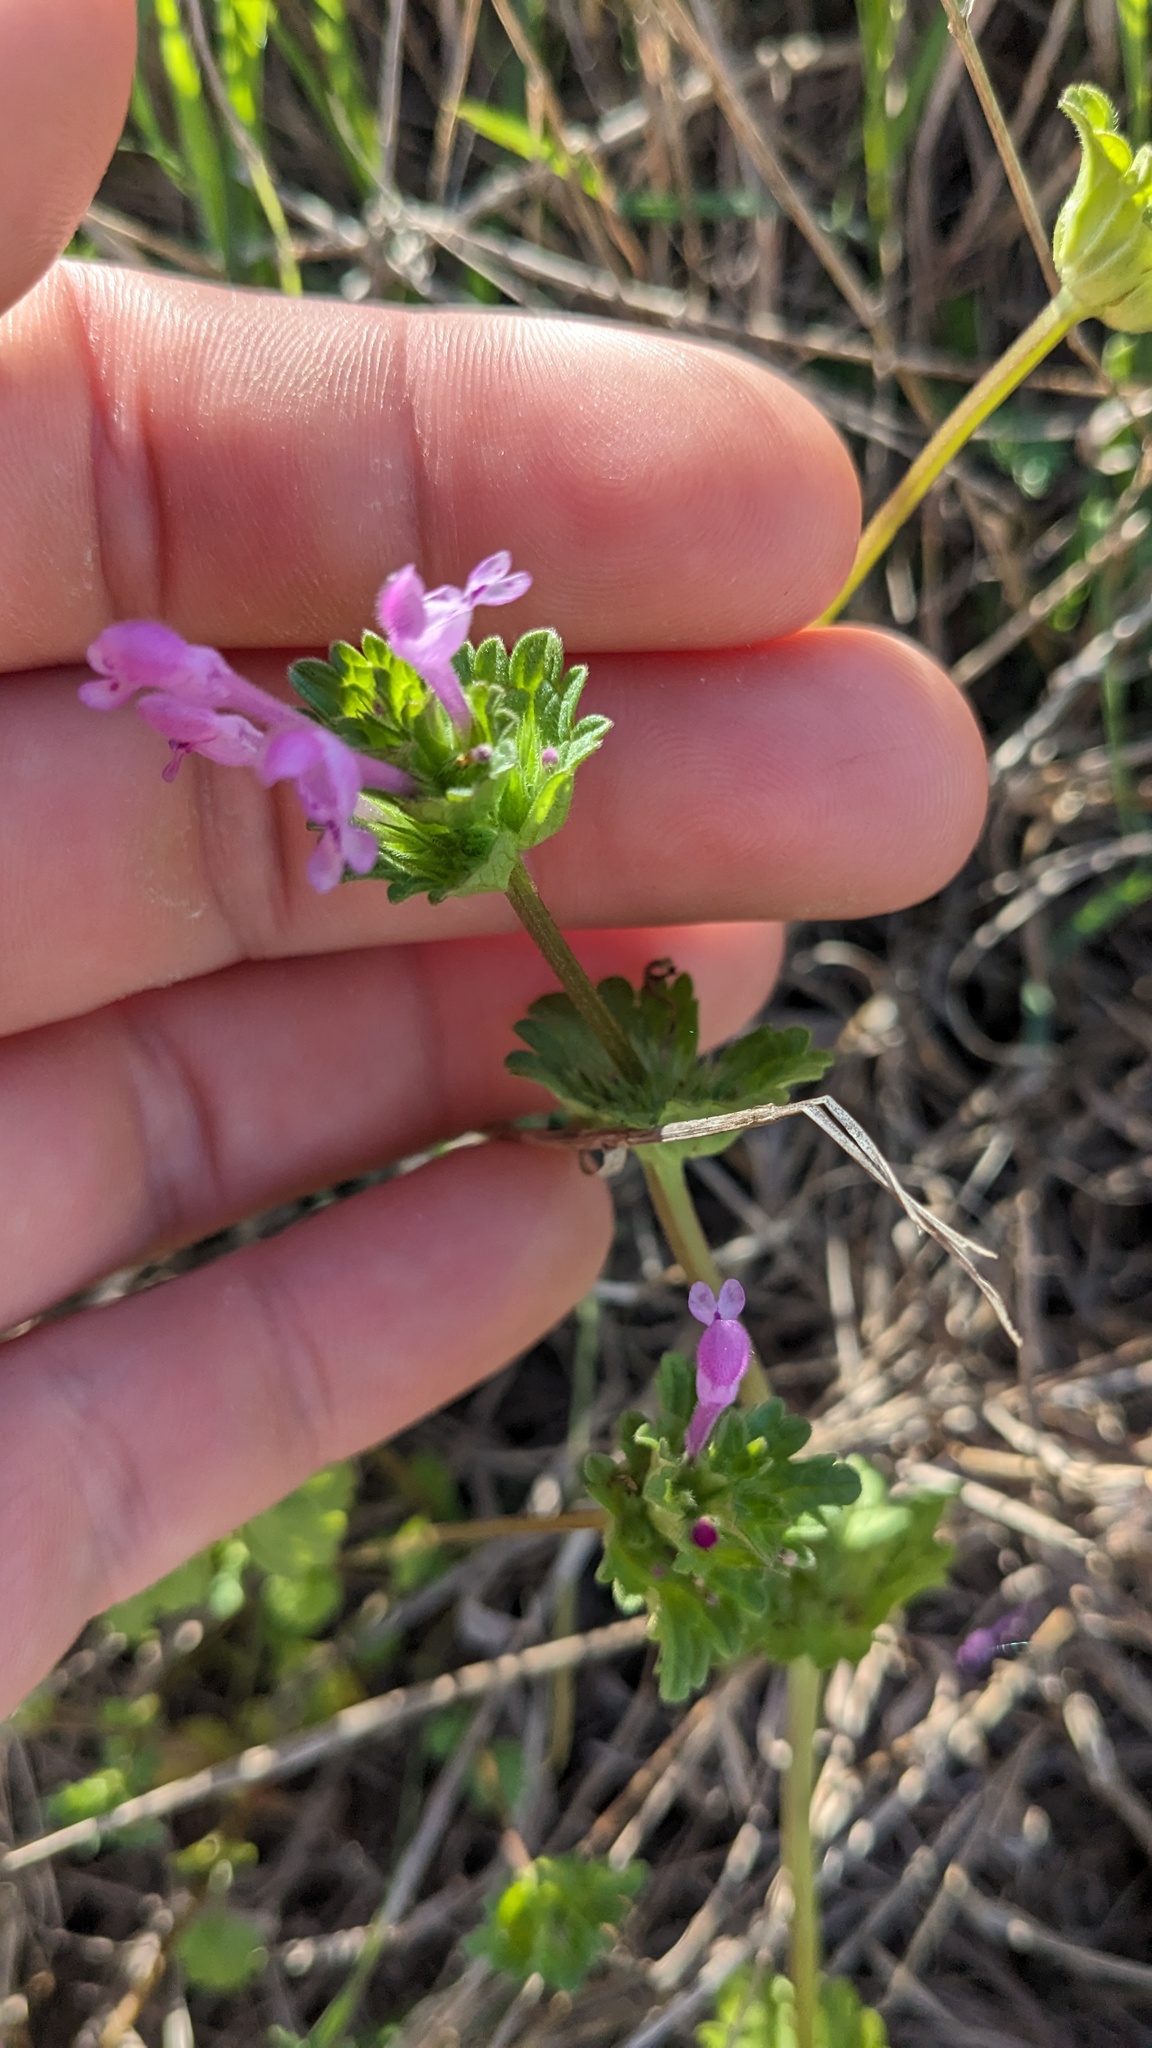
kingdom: Plantae
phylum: Tracheophyta
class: Magnoliopsida
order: Lamiales
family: Lamiaceae
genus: Lamium
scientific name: Lamium amplexicaule
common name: Henbit dead-nettle
